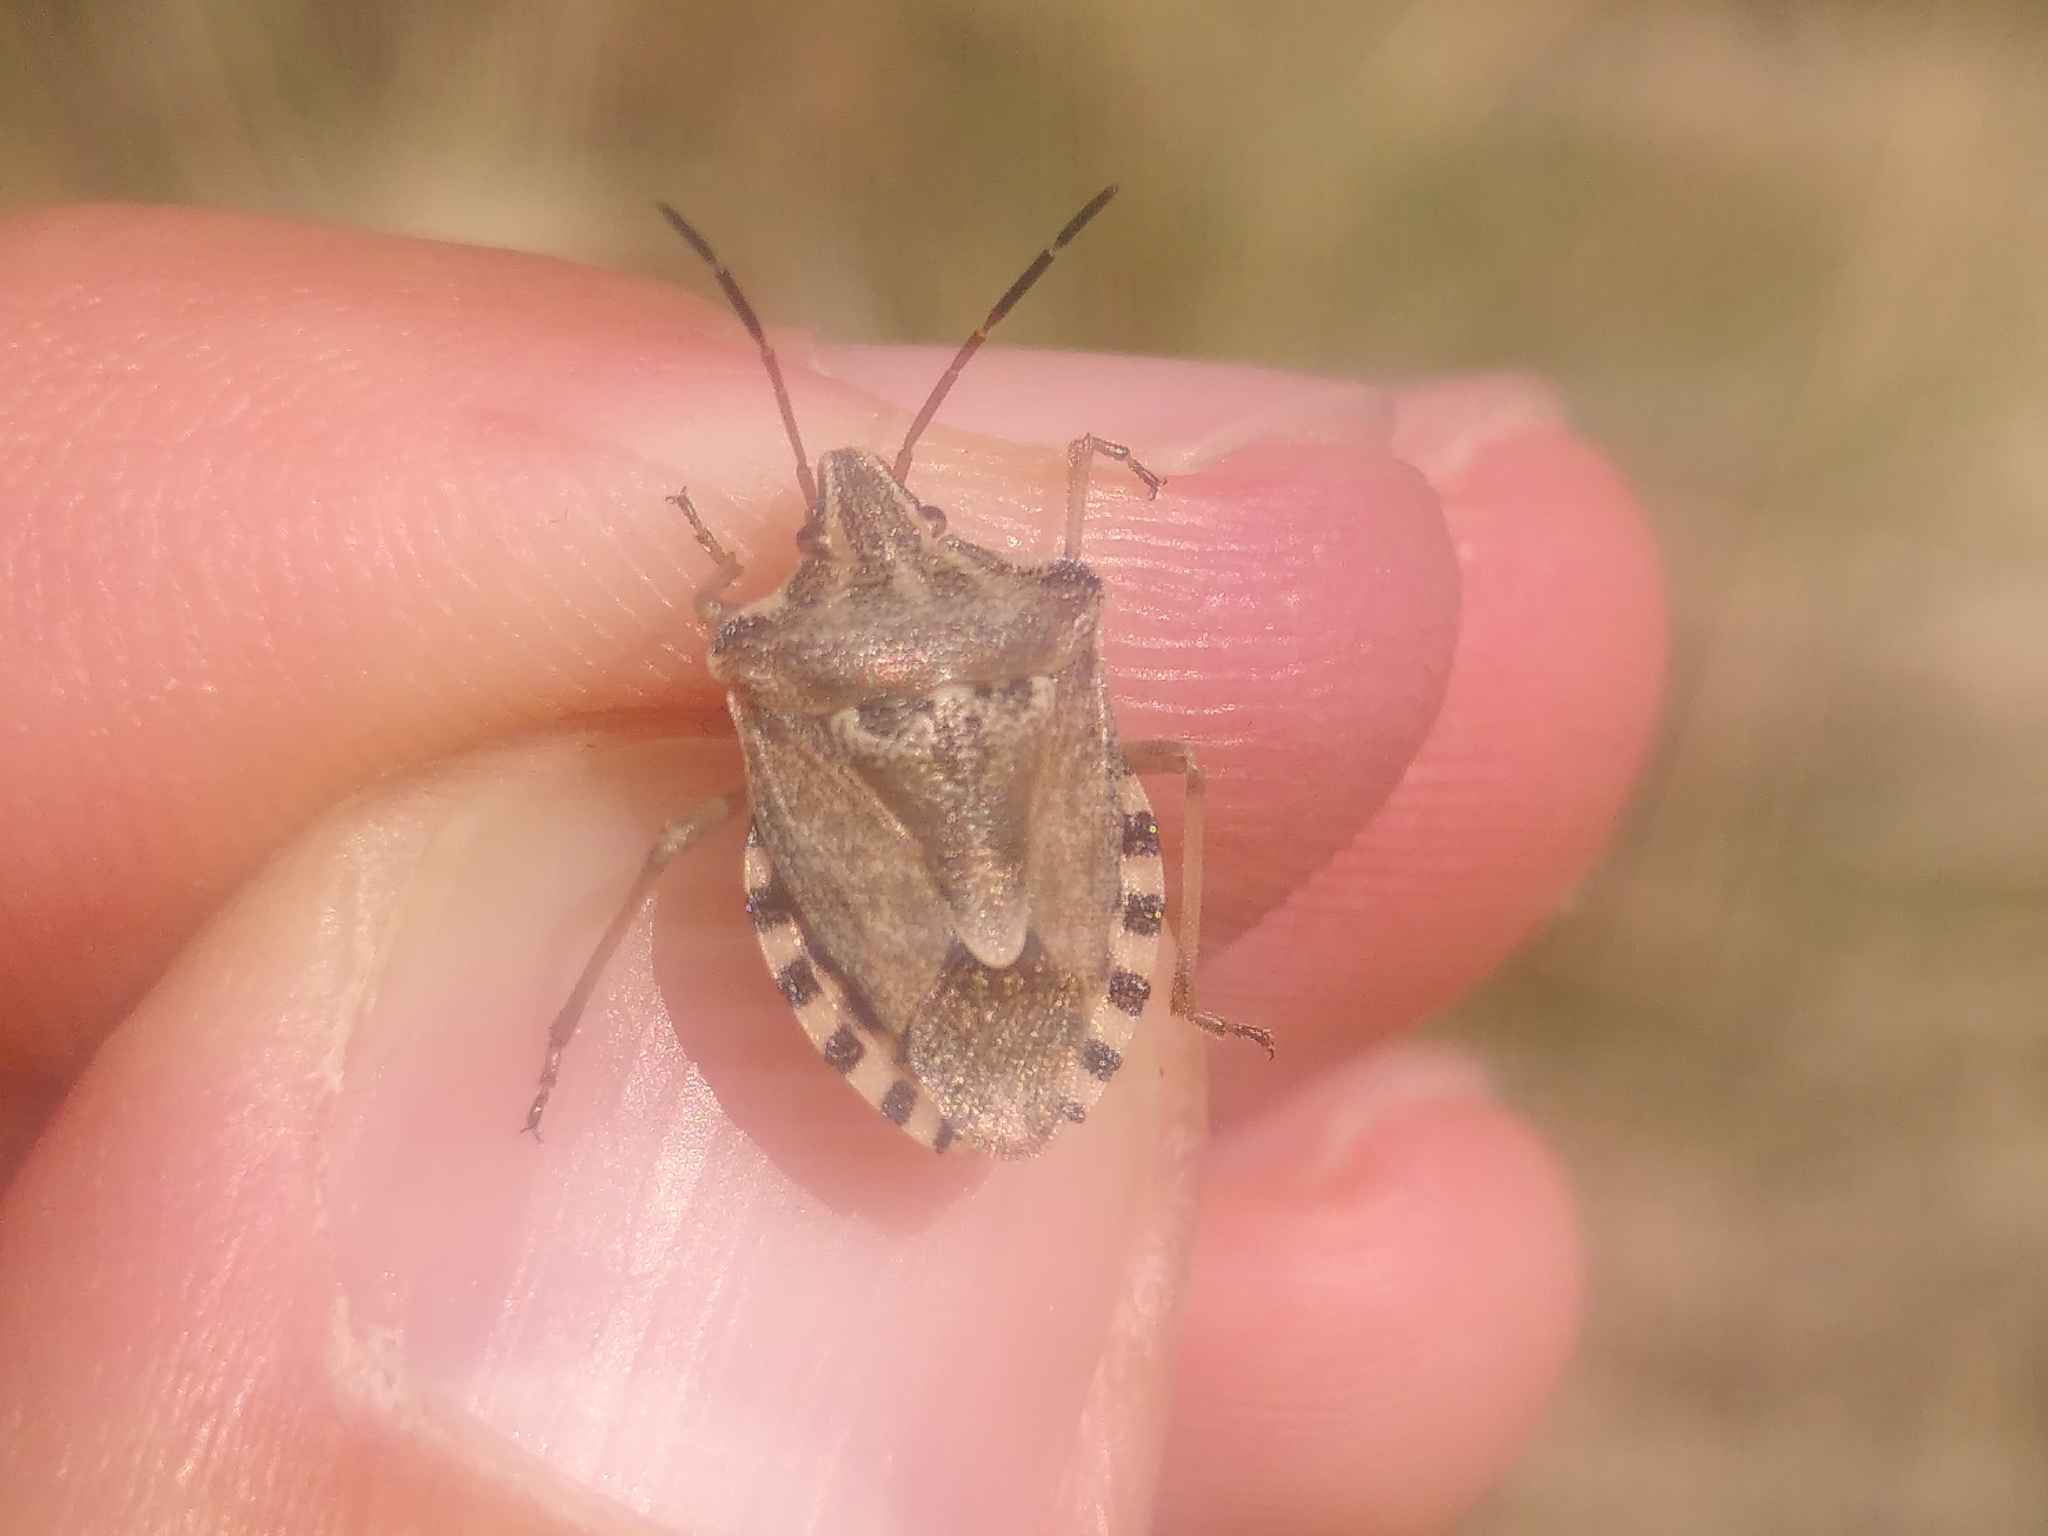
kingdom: Animalia
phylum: Arthropoda
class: Insecta
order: Hemiptera
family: Miridae
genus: Orthops
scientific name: Orthops kalmii
